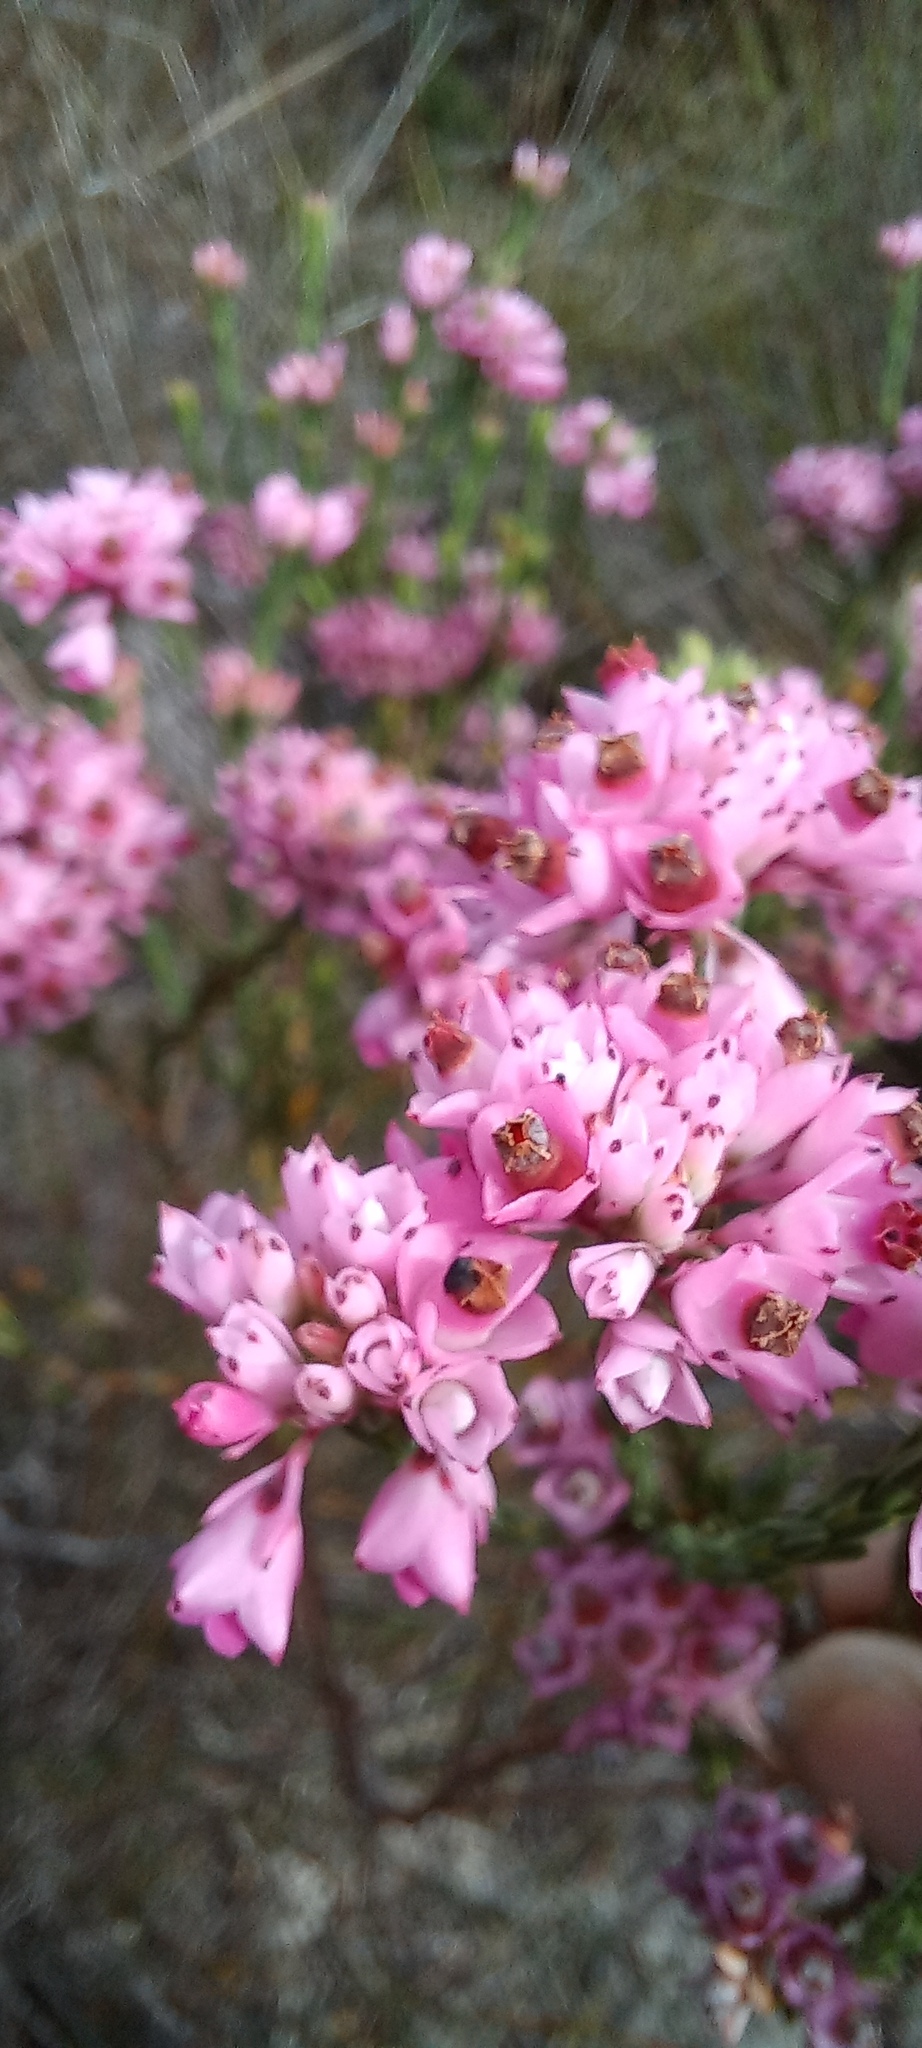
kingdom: Plantae
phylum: Tracheophyta
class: Magnoliopsida
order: Ericales
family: Ericaceae
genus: Erica
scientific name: Erica corifolia
